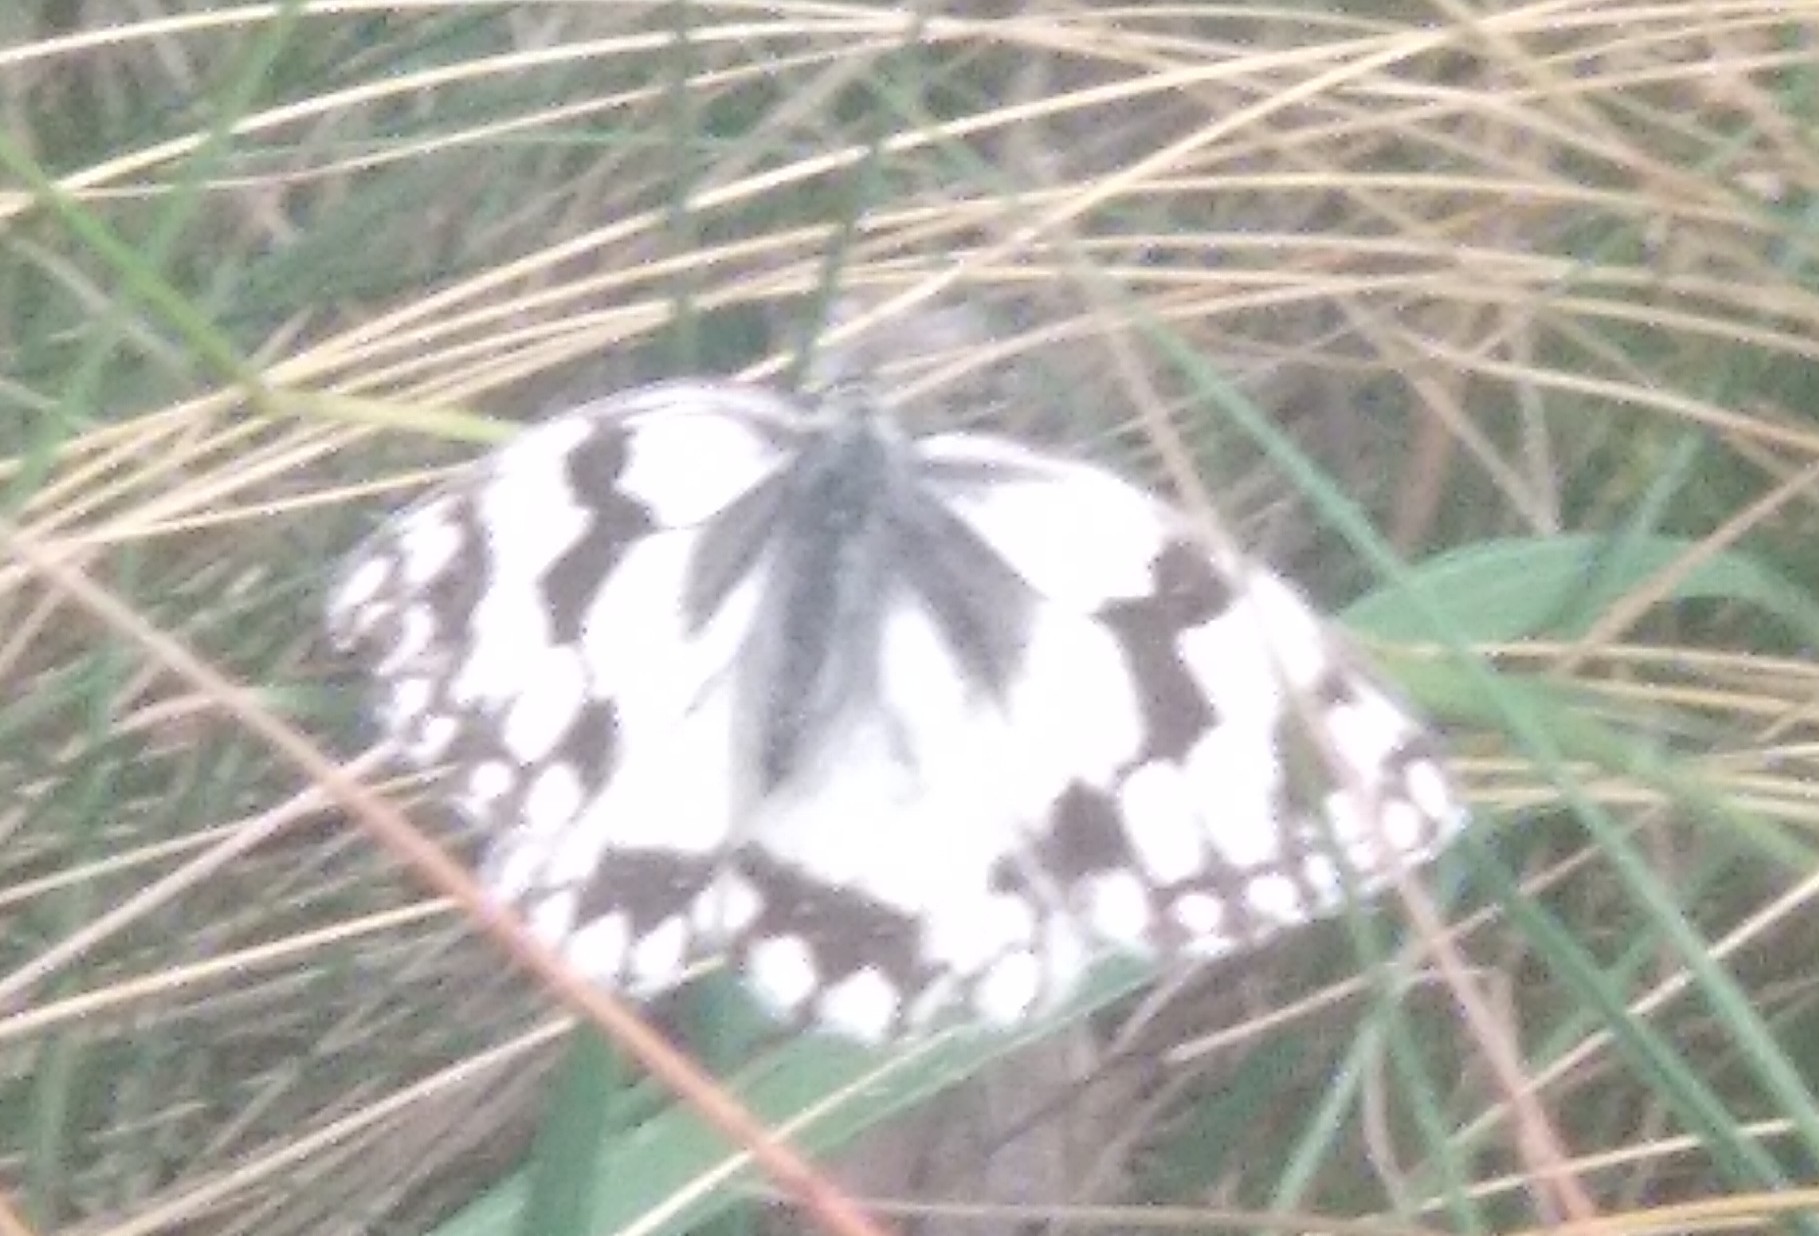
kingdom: Animalia
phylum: Arthropoda
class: Insecta
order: Lepidoptera
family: Nymphalidae
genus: Melanargia
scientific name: Melanargia lachesis
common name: Iberian marbled white
